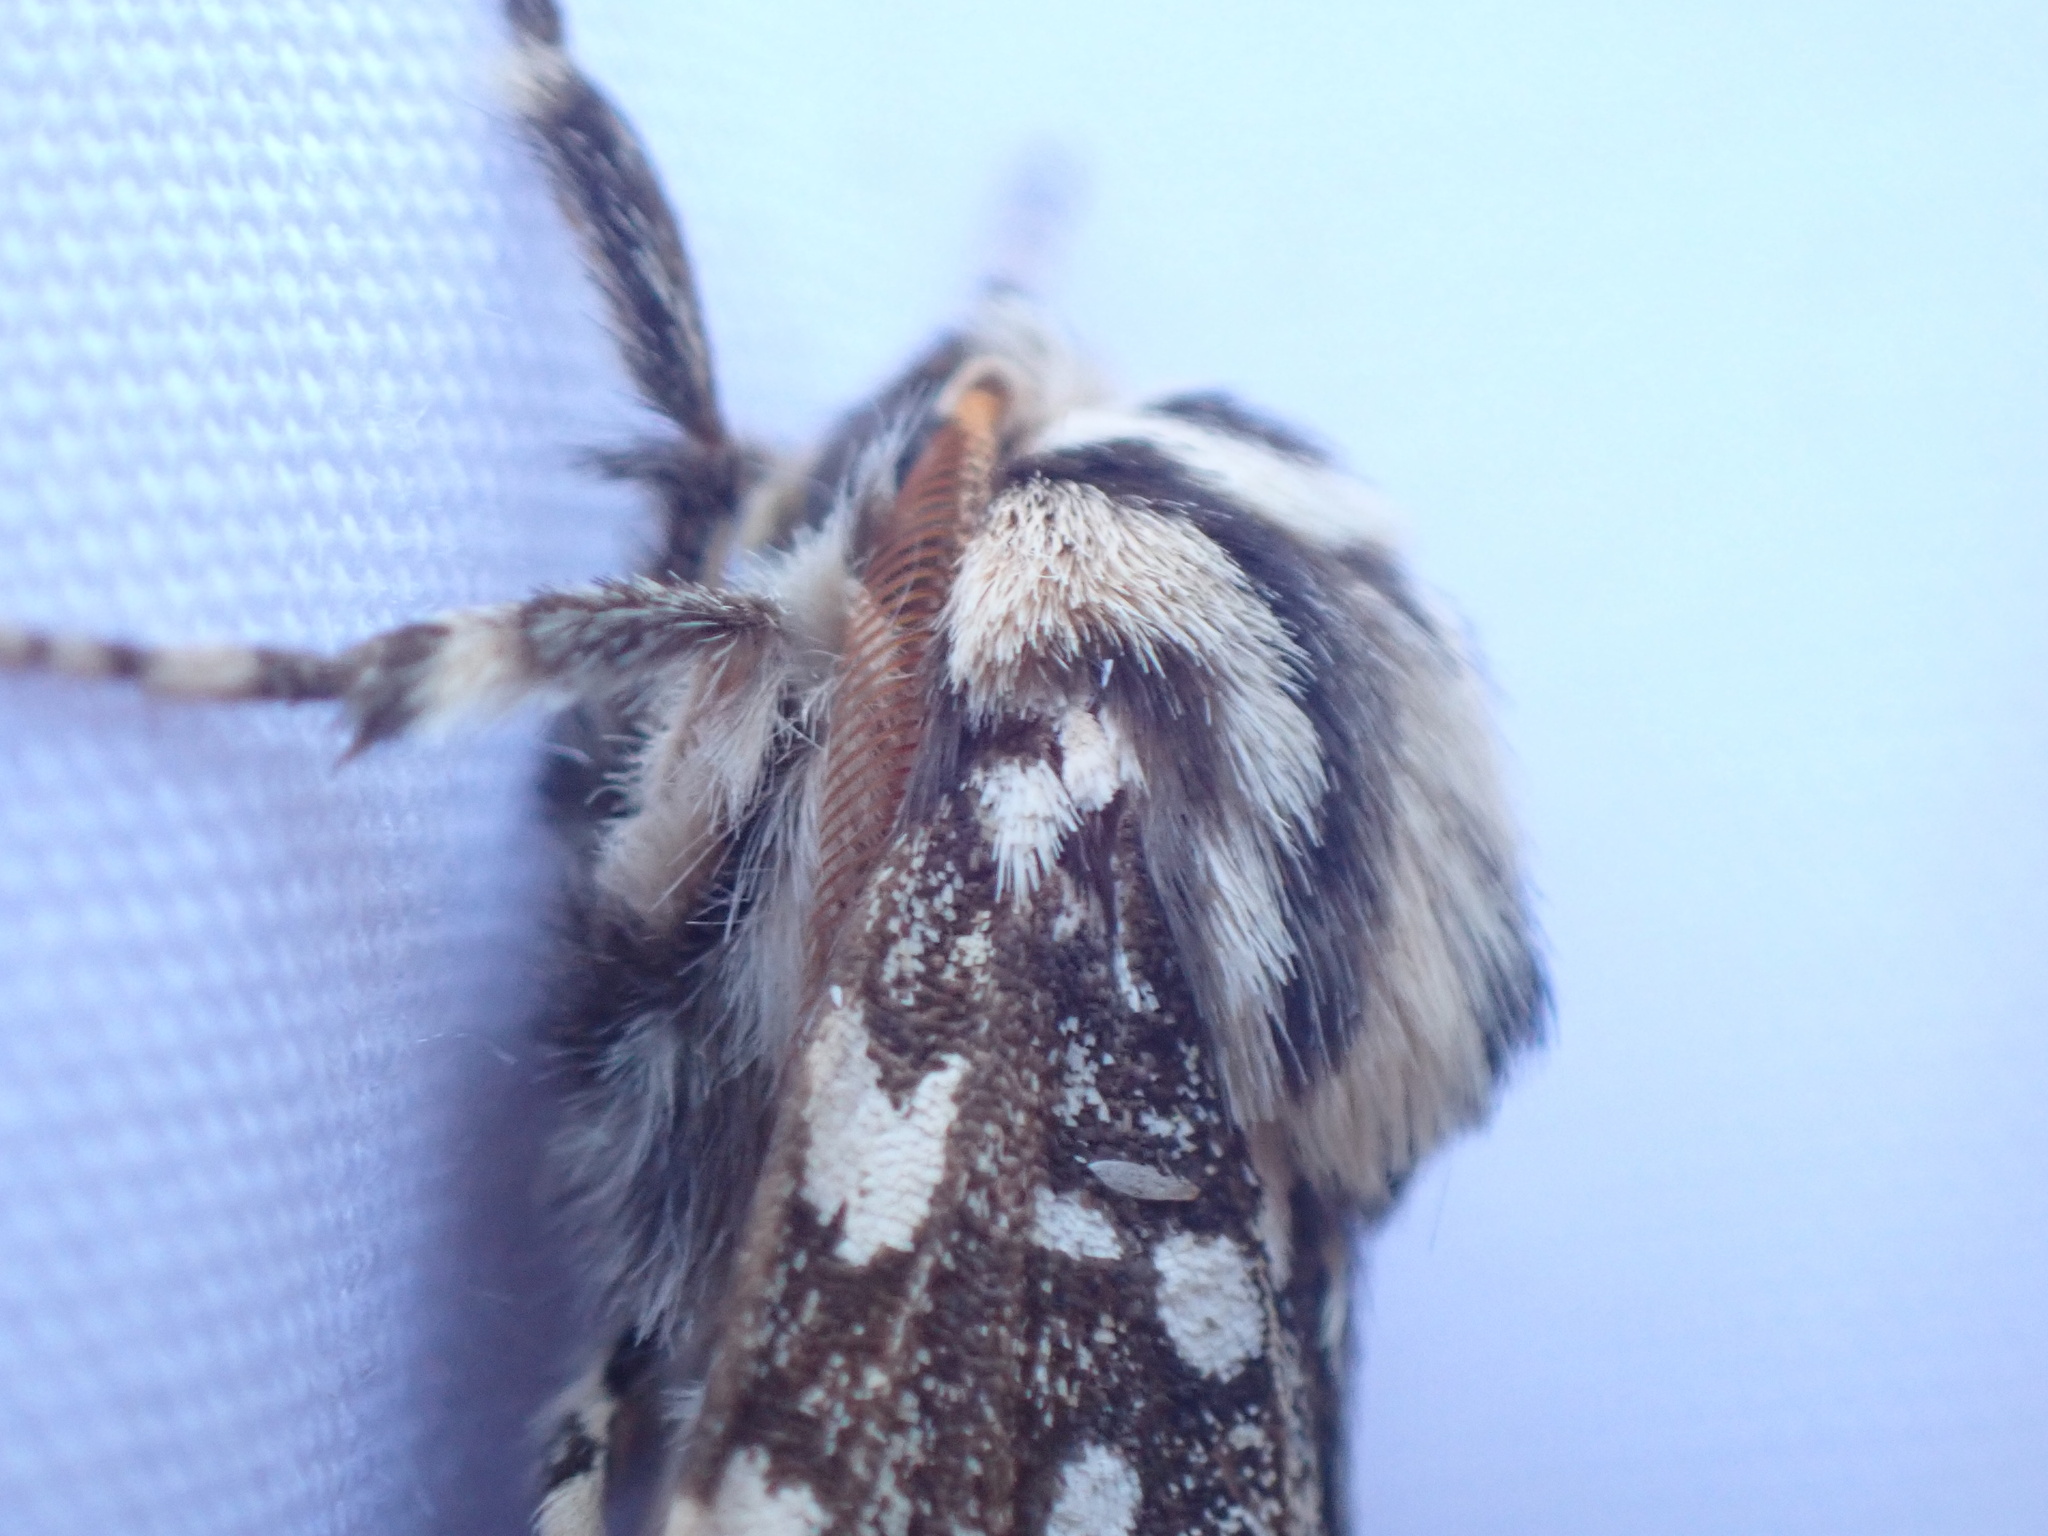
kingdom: Animalia
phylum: Arthropoda
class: Insecta
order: Lepidoptera
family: Erebidae
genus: Lophocampa
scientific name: Lophocampa argentata
